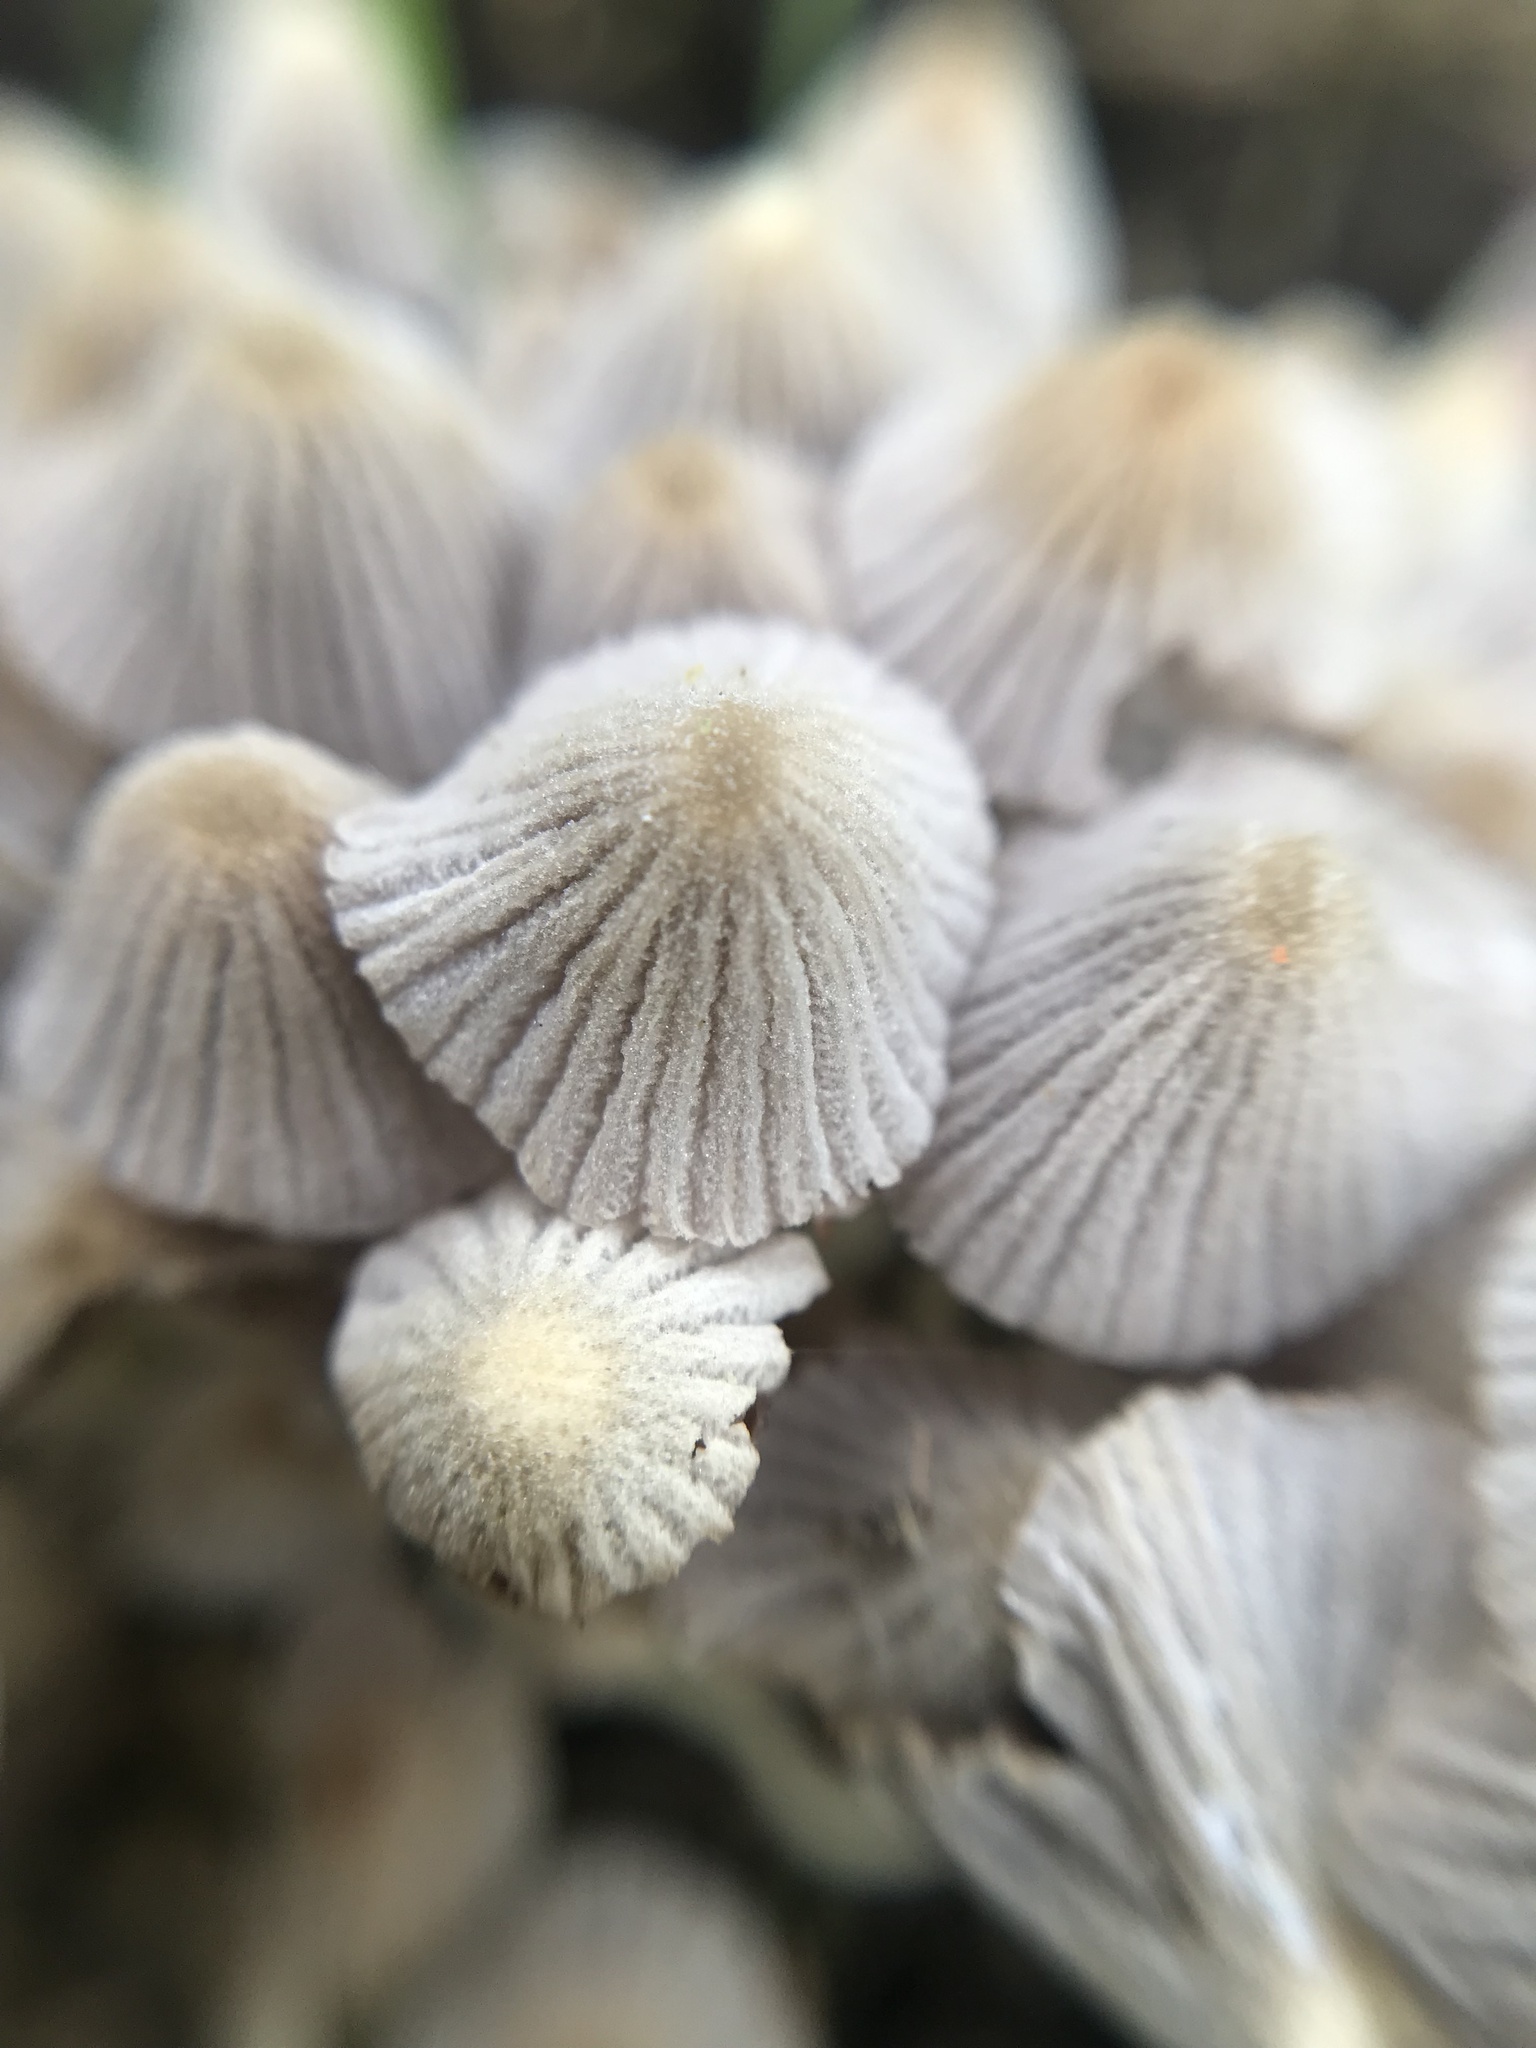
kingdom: Fungi
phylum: Basidiomycota
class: Agaricomycetes
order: Agaricales
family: Psathyrellaceae
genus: Coprinellus
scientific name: Coprinellus disseminatus
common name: Fairies' bonnets
